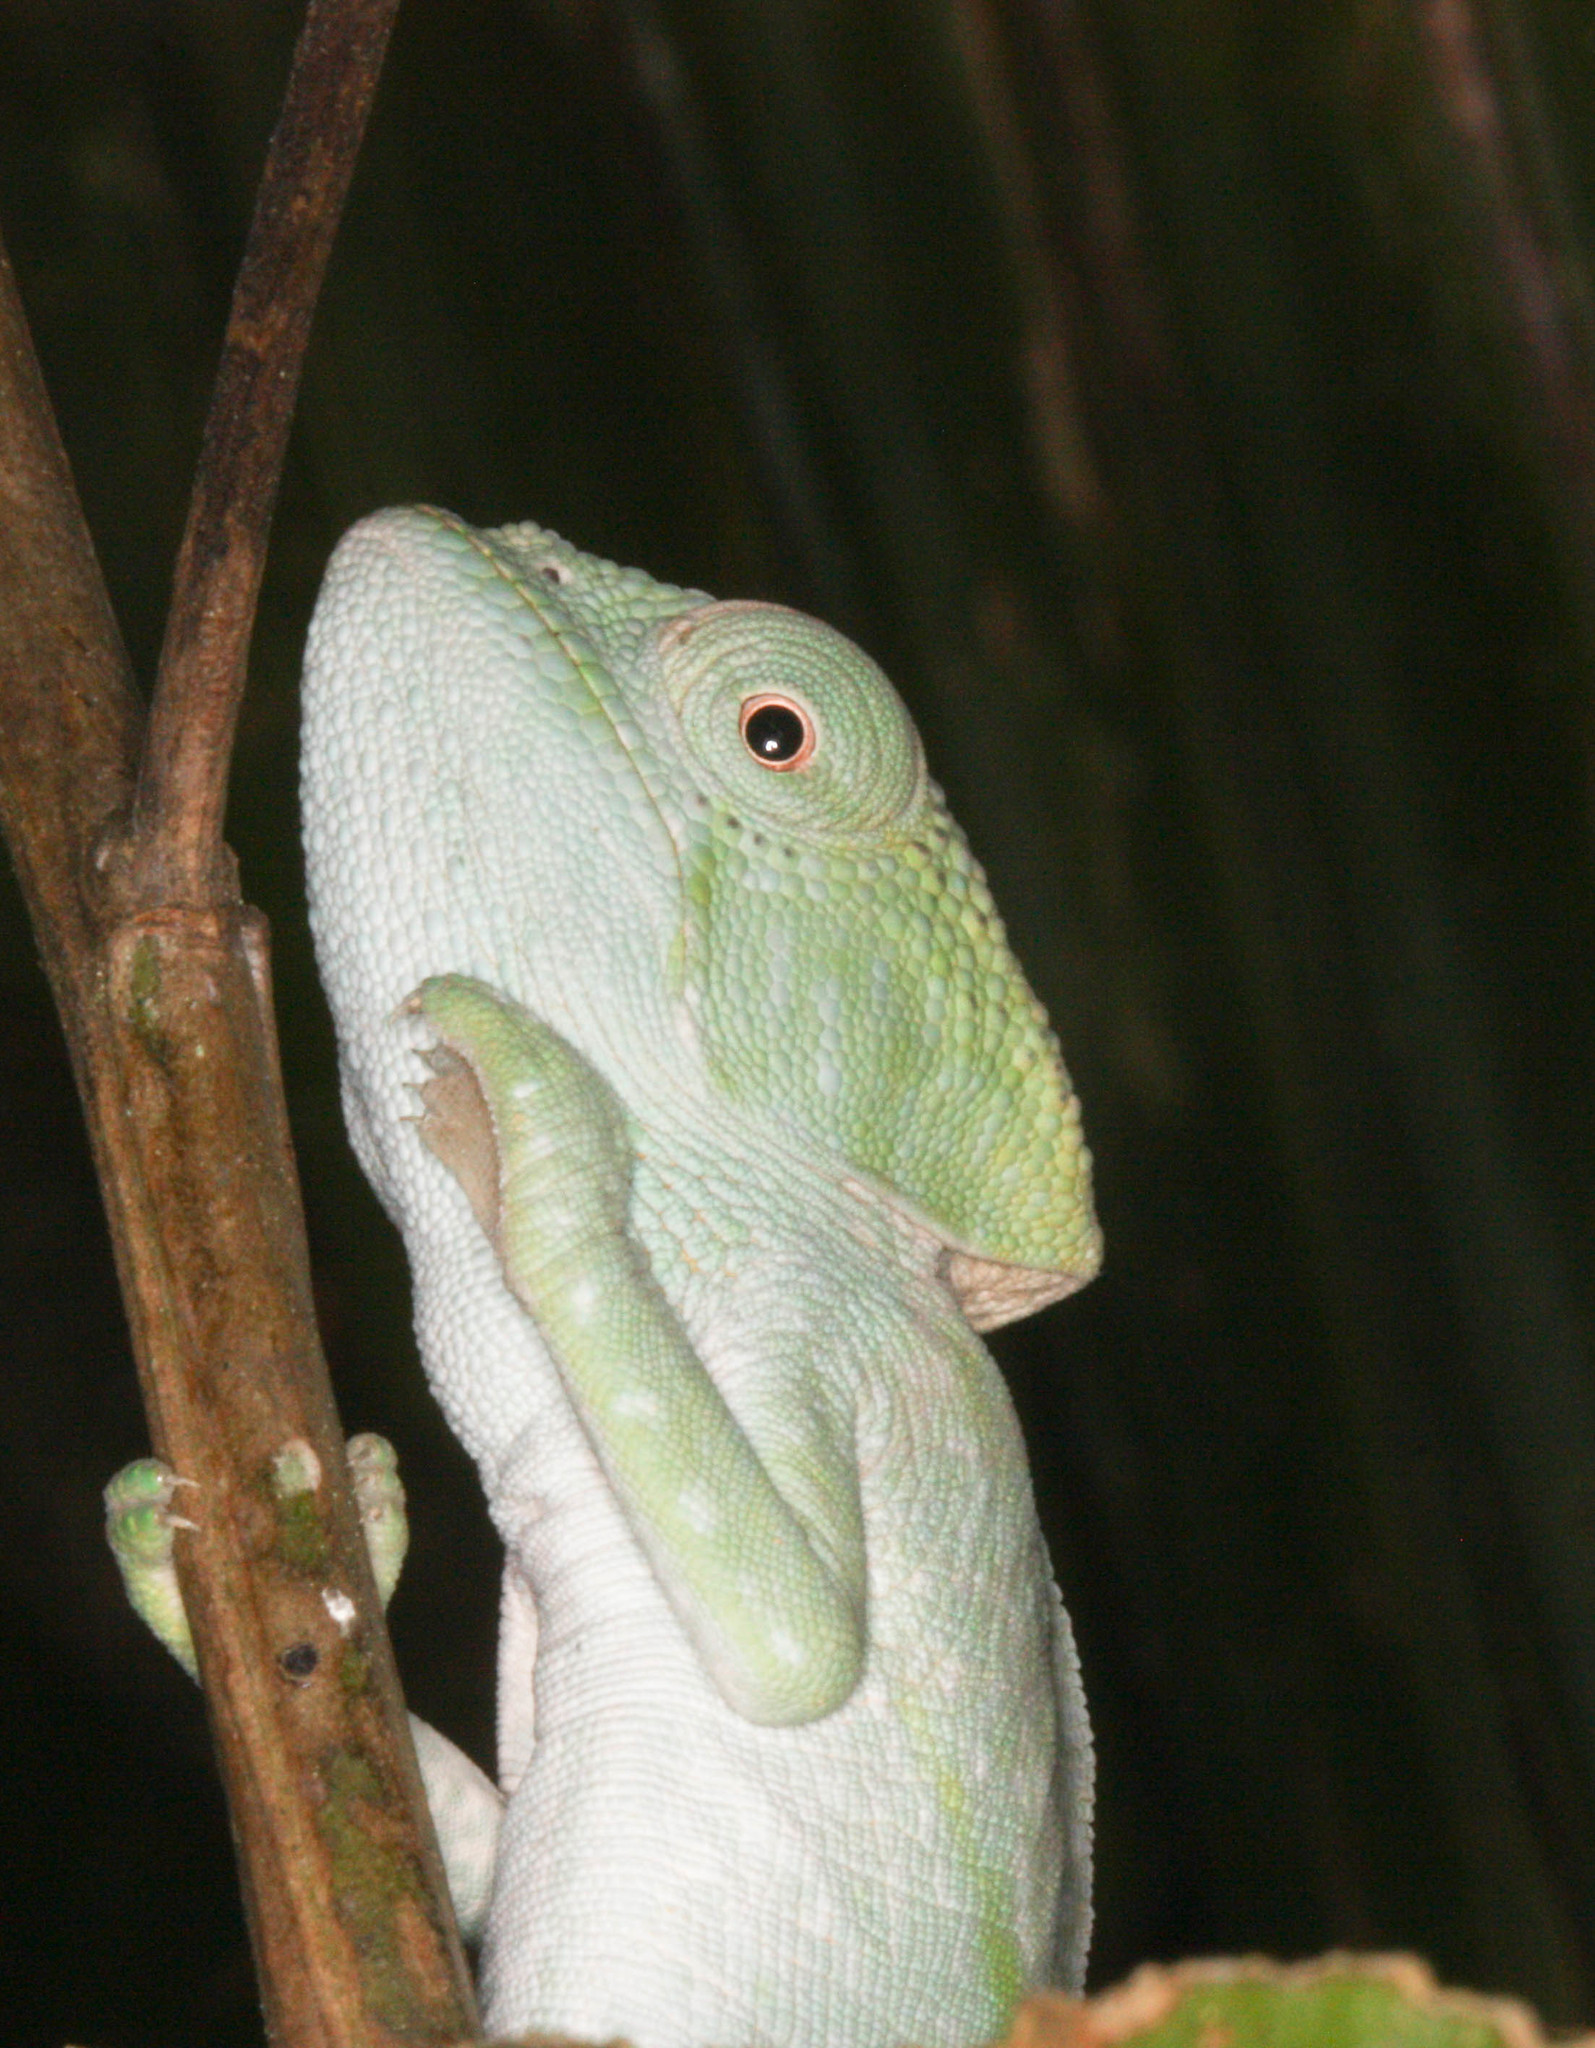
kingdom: Animalia
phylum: Chordata
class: Squamata
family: Chamaeleonidae
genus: Calumma
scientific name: Calumma parsonii
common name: Parson's chameleon
